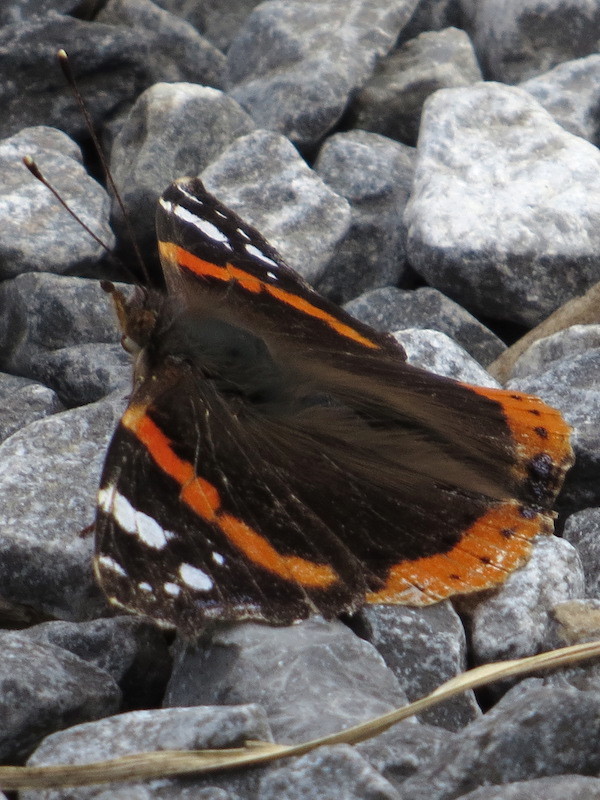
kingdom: Animalia
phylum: Arthropoda
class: Insecta
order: Lepidoptera
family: Nymphalidae
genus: Vanessa
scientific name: Vanessa atalanta
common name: Red admiral
